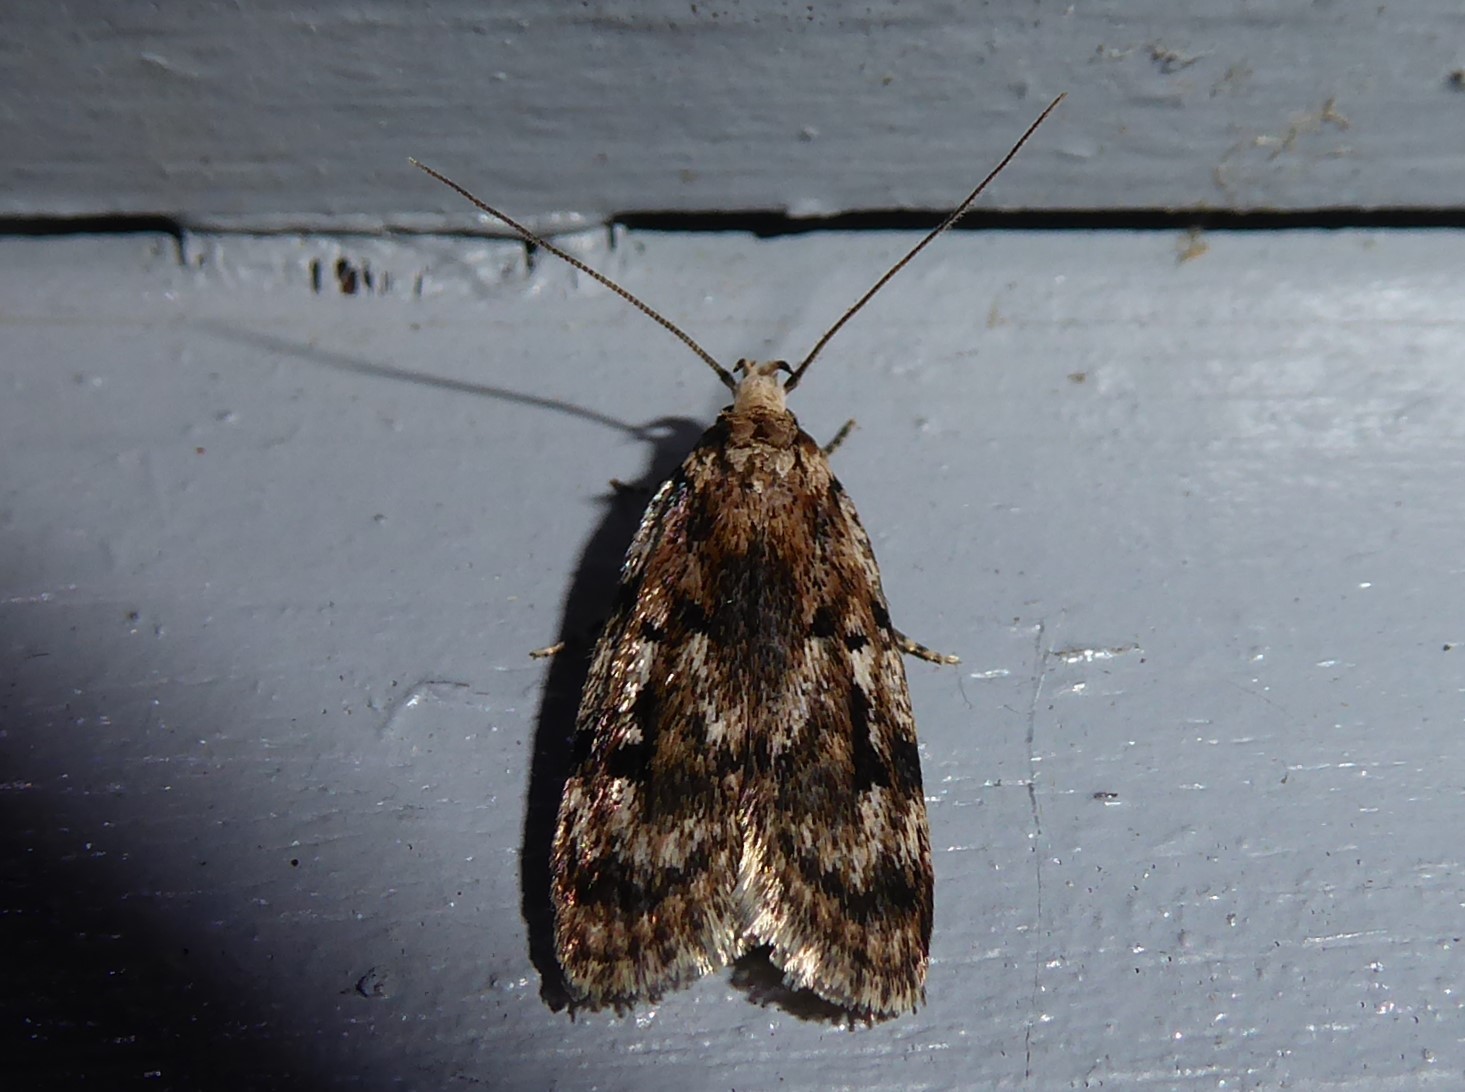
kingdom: Animalia
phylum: Arthropoda
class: Insecta
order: Lepidoptera
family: Oecophoridae
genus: Barea
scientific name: Barea exarcha
